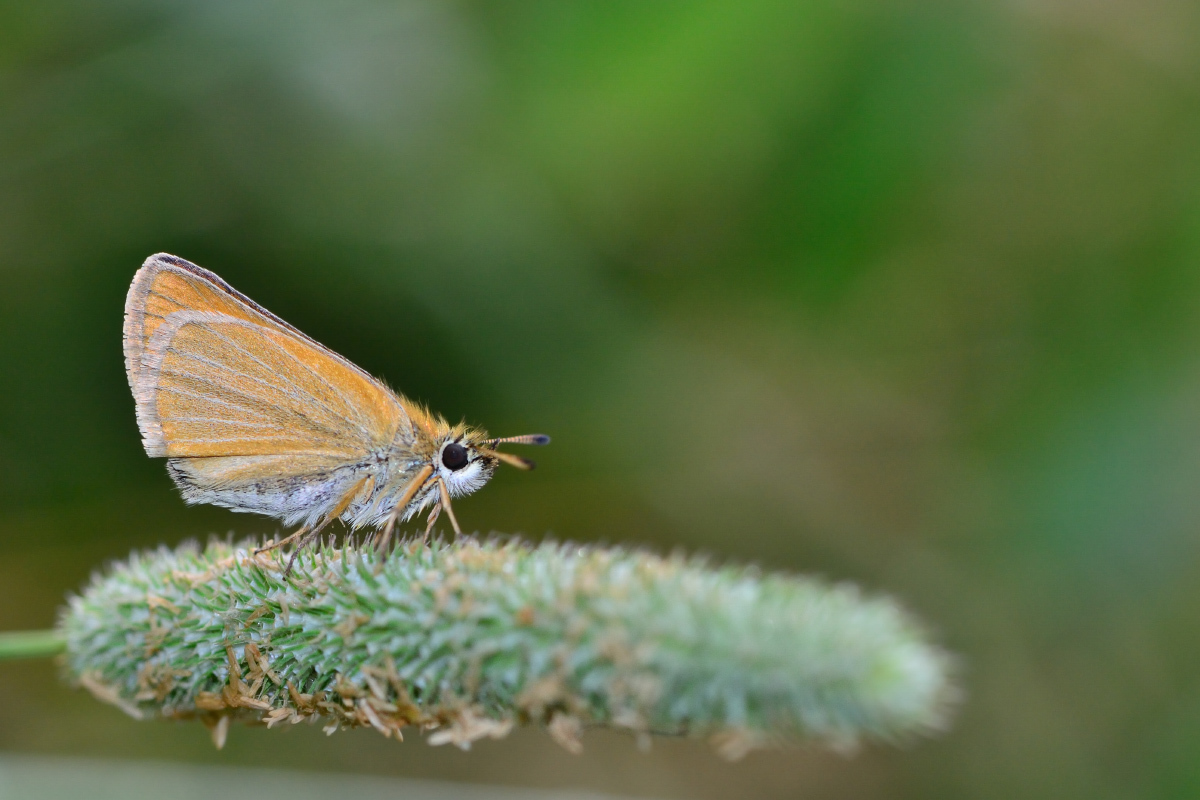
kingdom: Animalia
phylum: Arthropoda
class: Insecta
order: Lepidoptera
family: Hesperiidae
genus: Thymelicus
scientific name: Thymelicus lineola
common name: Essex skipper
